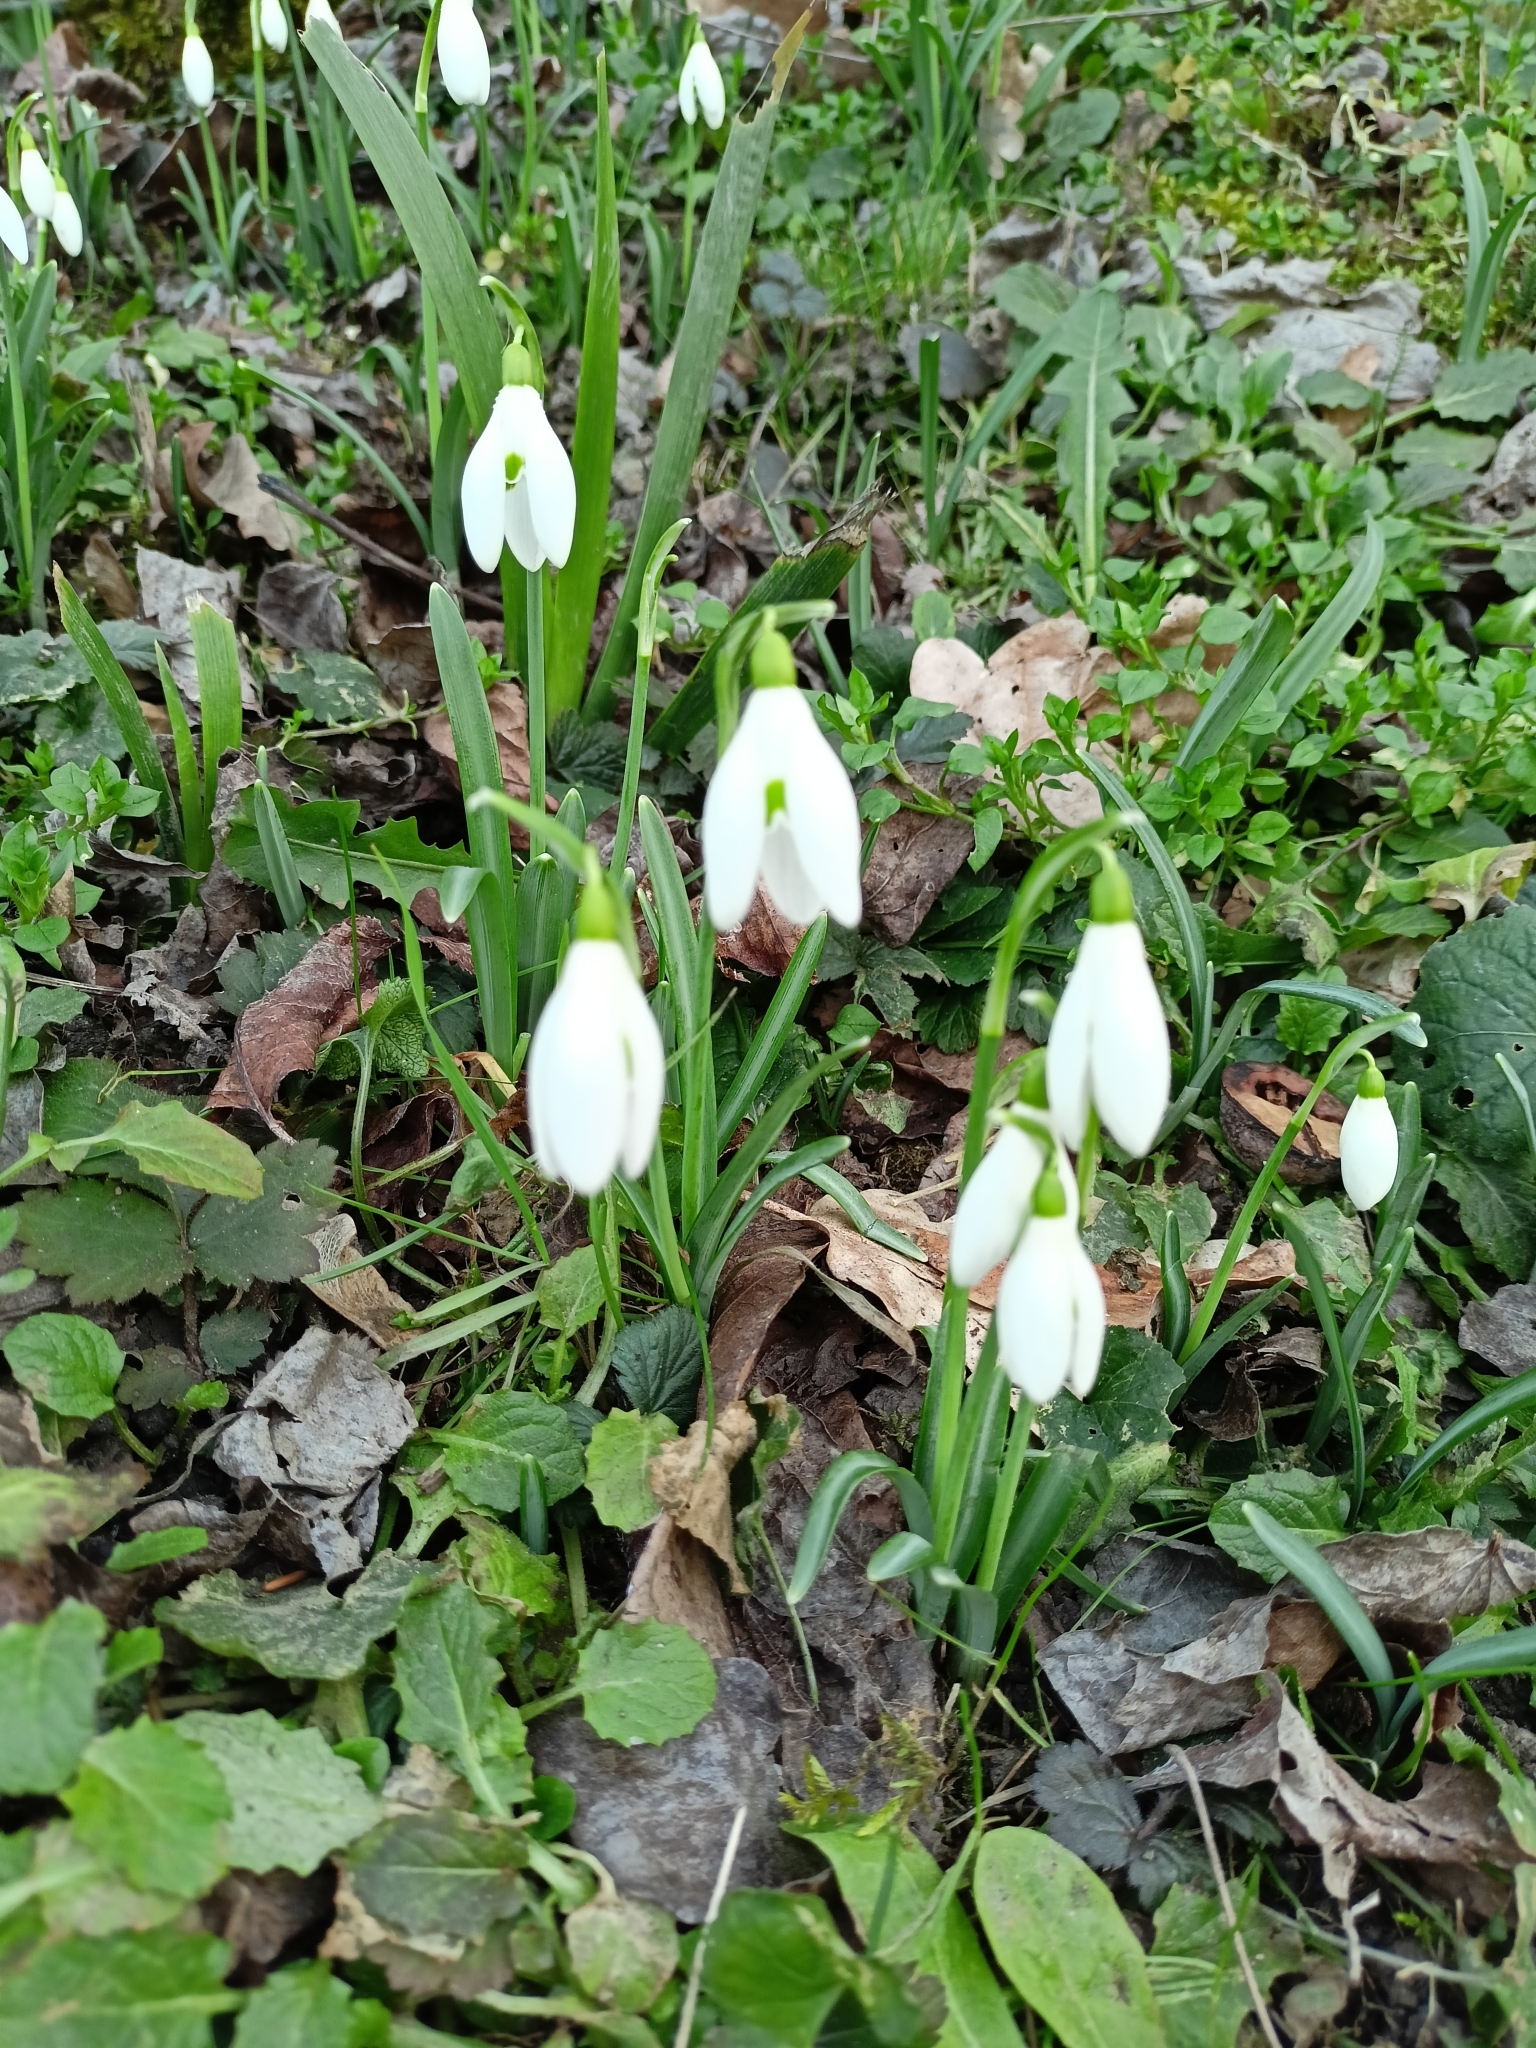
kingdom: Plantae
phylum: Tracheophyta
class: Liliopsida
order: Asparagales
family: Amaryllidaceae
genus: Galanthus
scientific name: Galanthus nivalis
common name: Snowdrop
